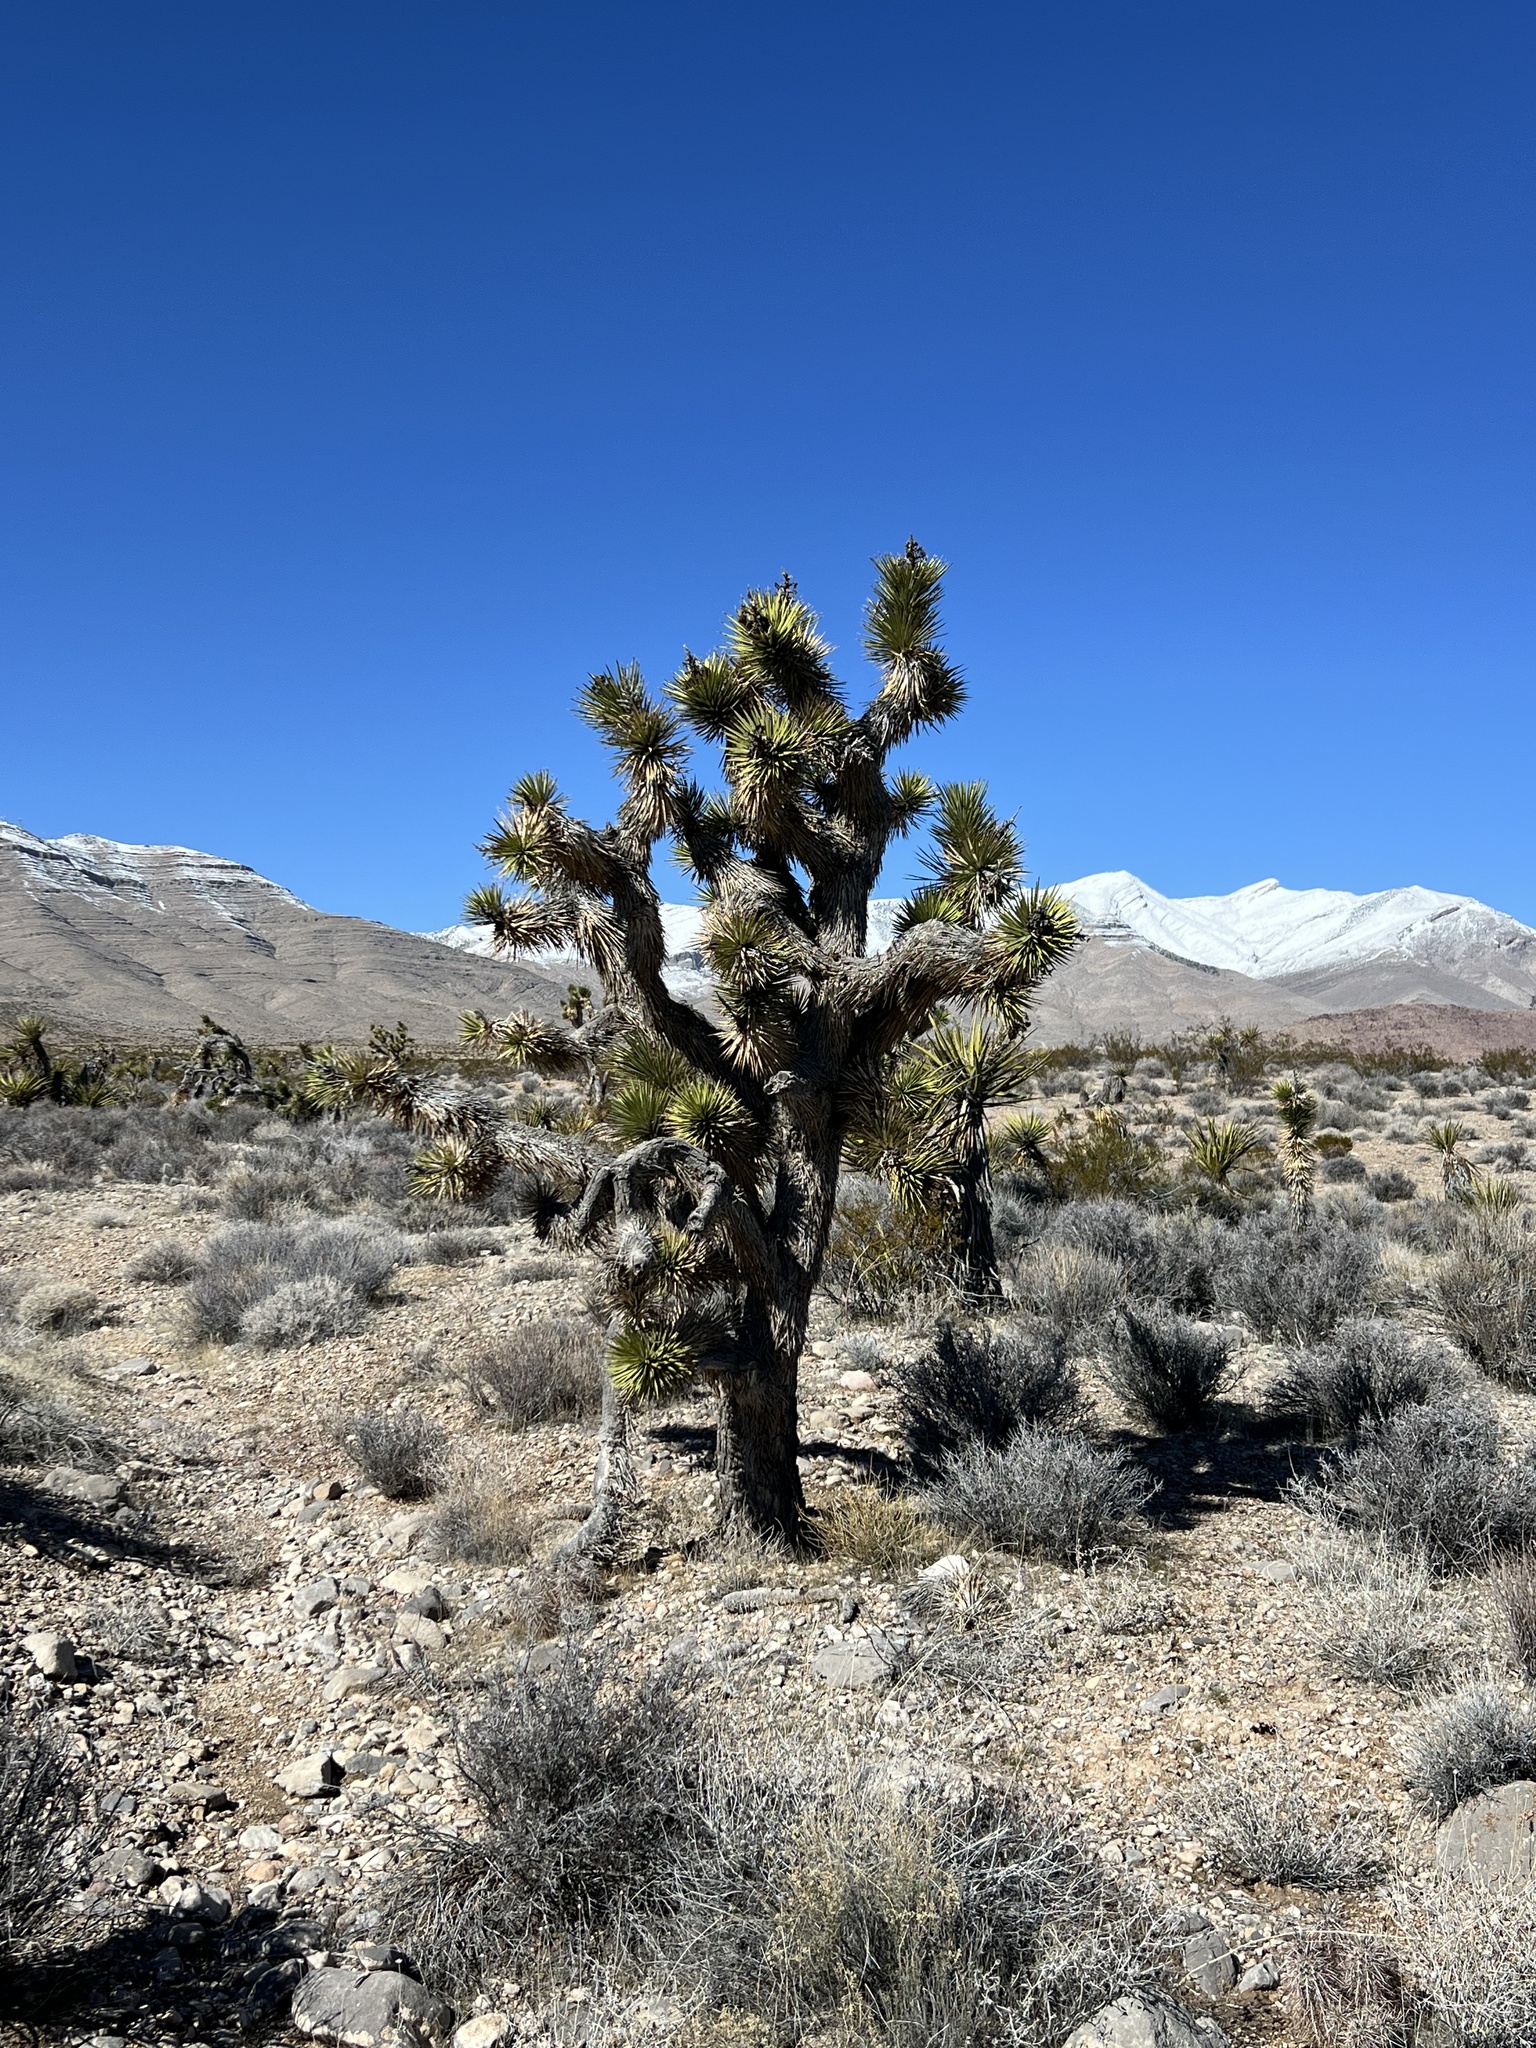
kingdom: Plantae
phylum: Tracheophyta
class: Liliopsida
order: Asparagales
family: Asparagaceae
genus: Yucca
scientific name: Yucca brevifolia
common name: Joshua tree
